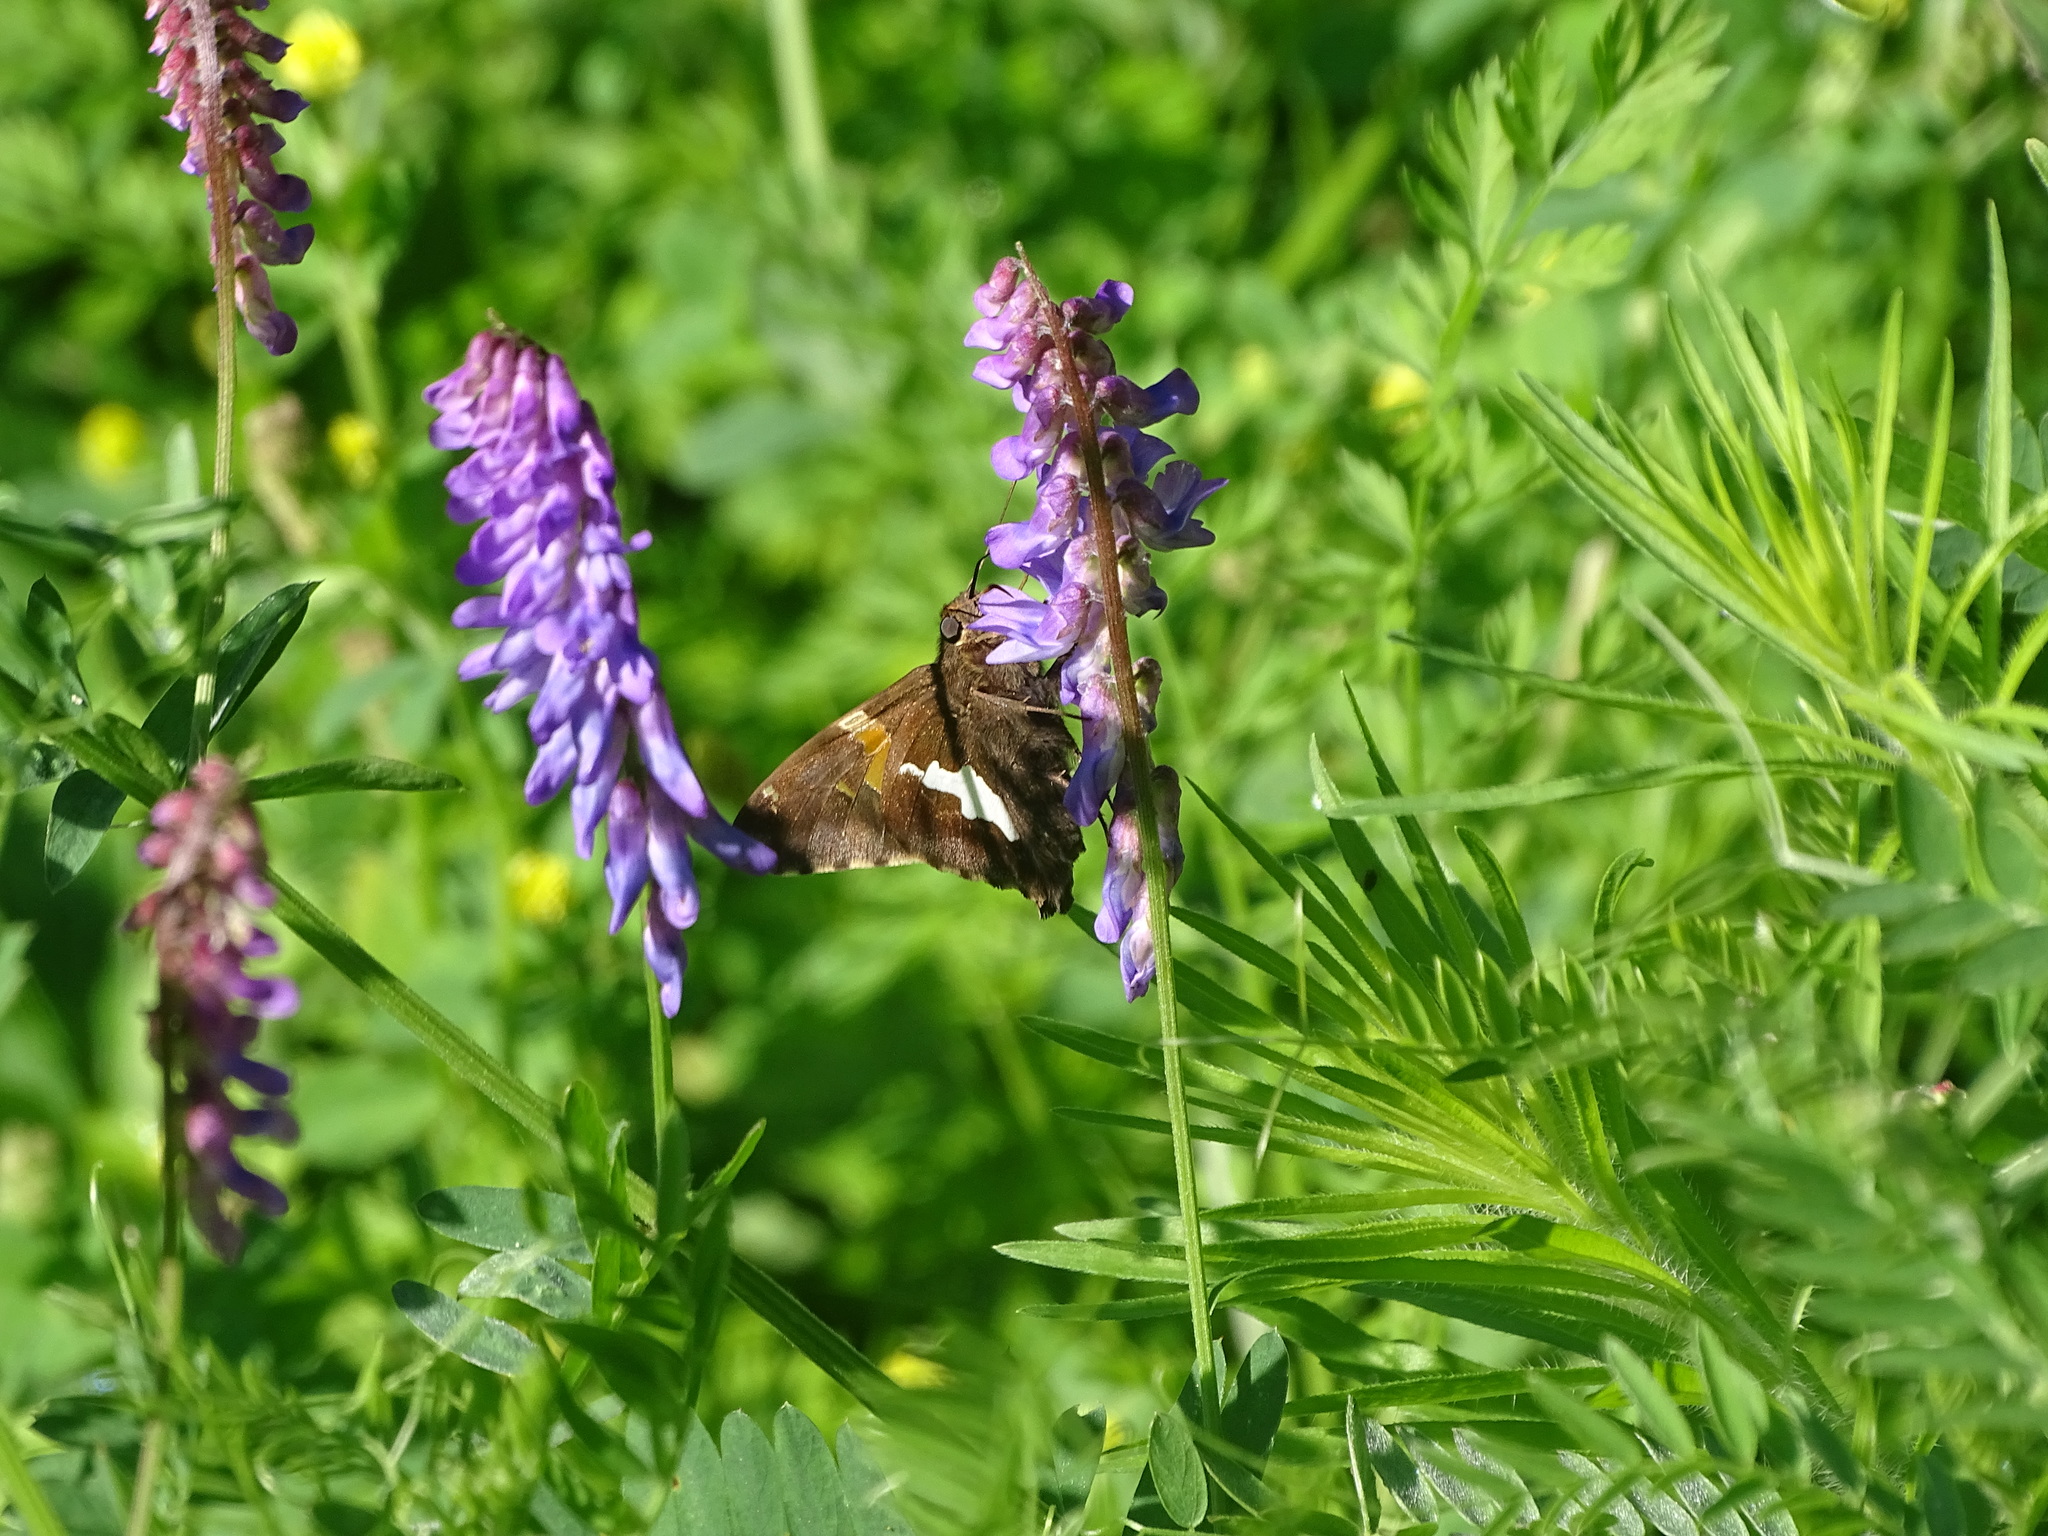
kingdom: Animalia
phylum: Arthropoda
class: Insecta
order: Lepidoptera
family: Hesperiidae
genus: Epargyreus
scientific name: Epargyreus clarus
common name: Silver-spotted skipper
